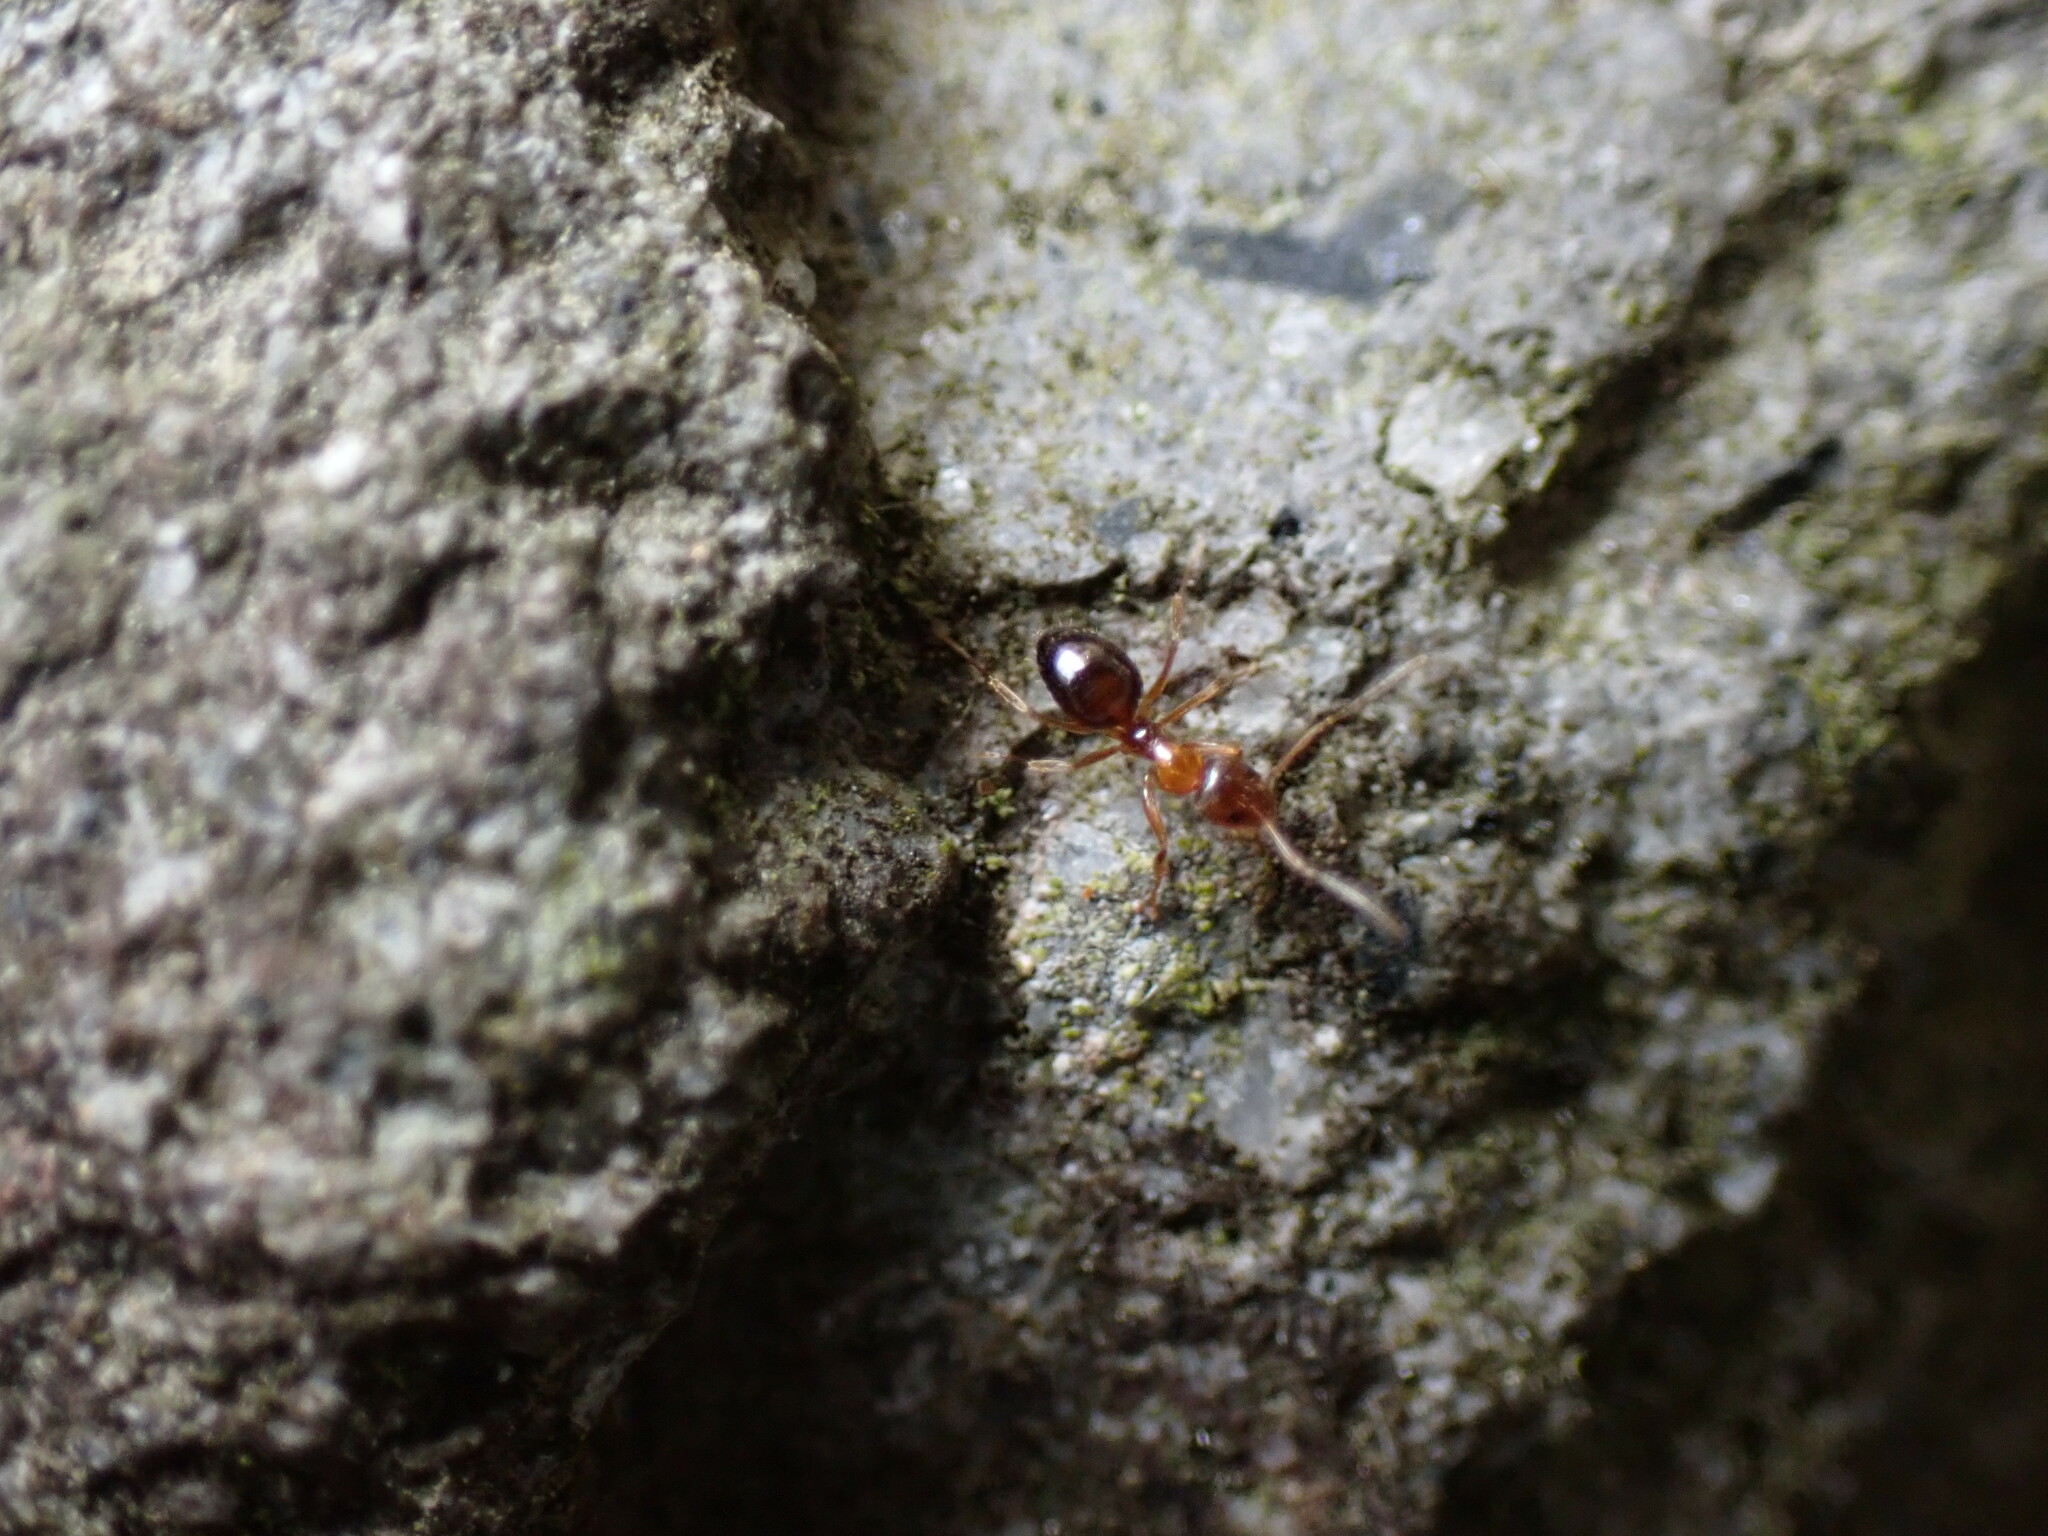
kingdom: Animalia
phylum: Arthropoda
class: Insecta
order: Hymenoptera
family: Formicidae
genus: Paratrechina
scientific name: Paratrechina flavipes
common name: Eastern asian formicine ant
